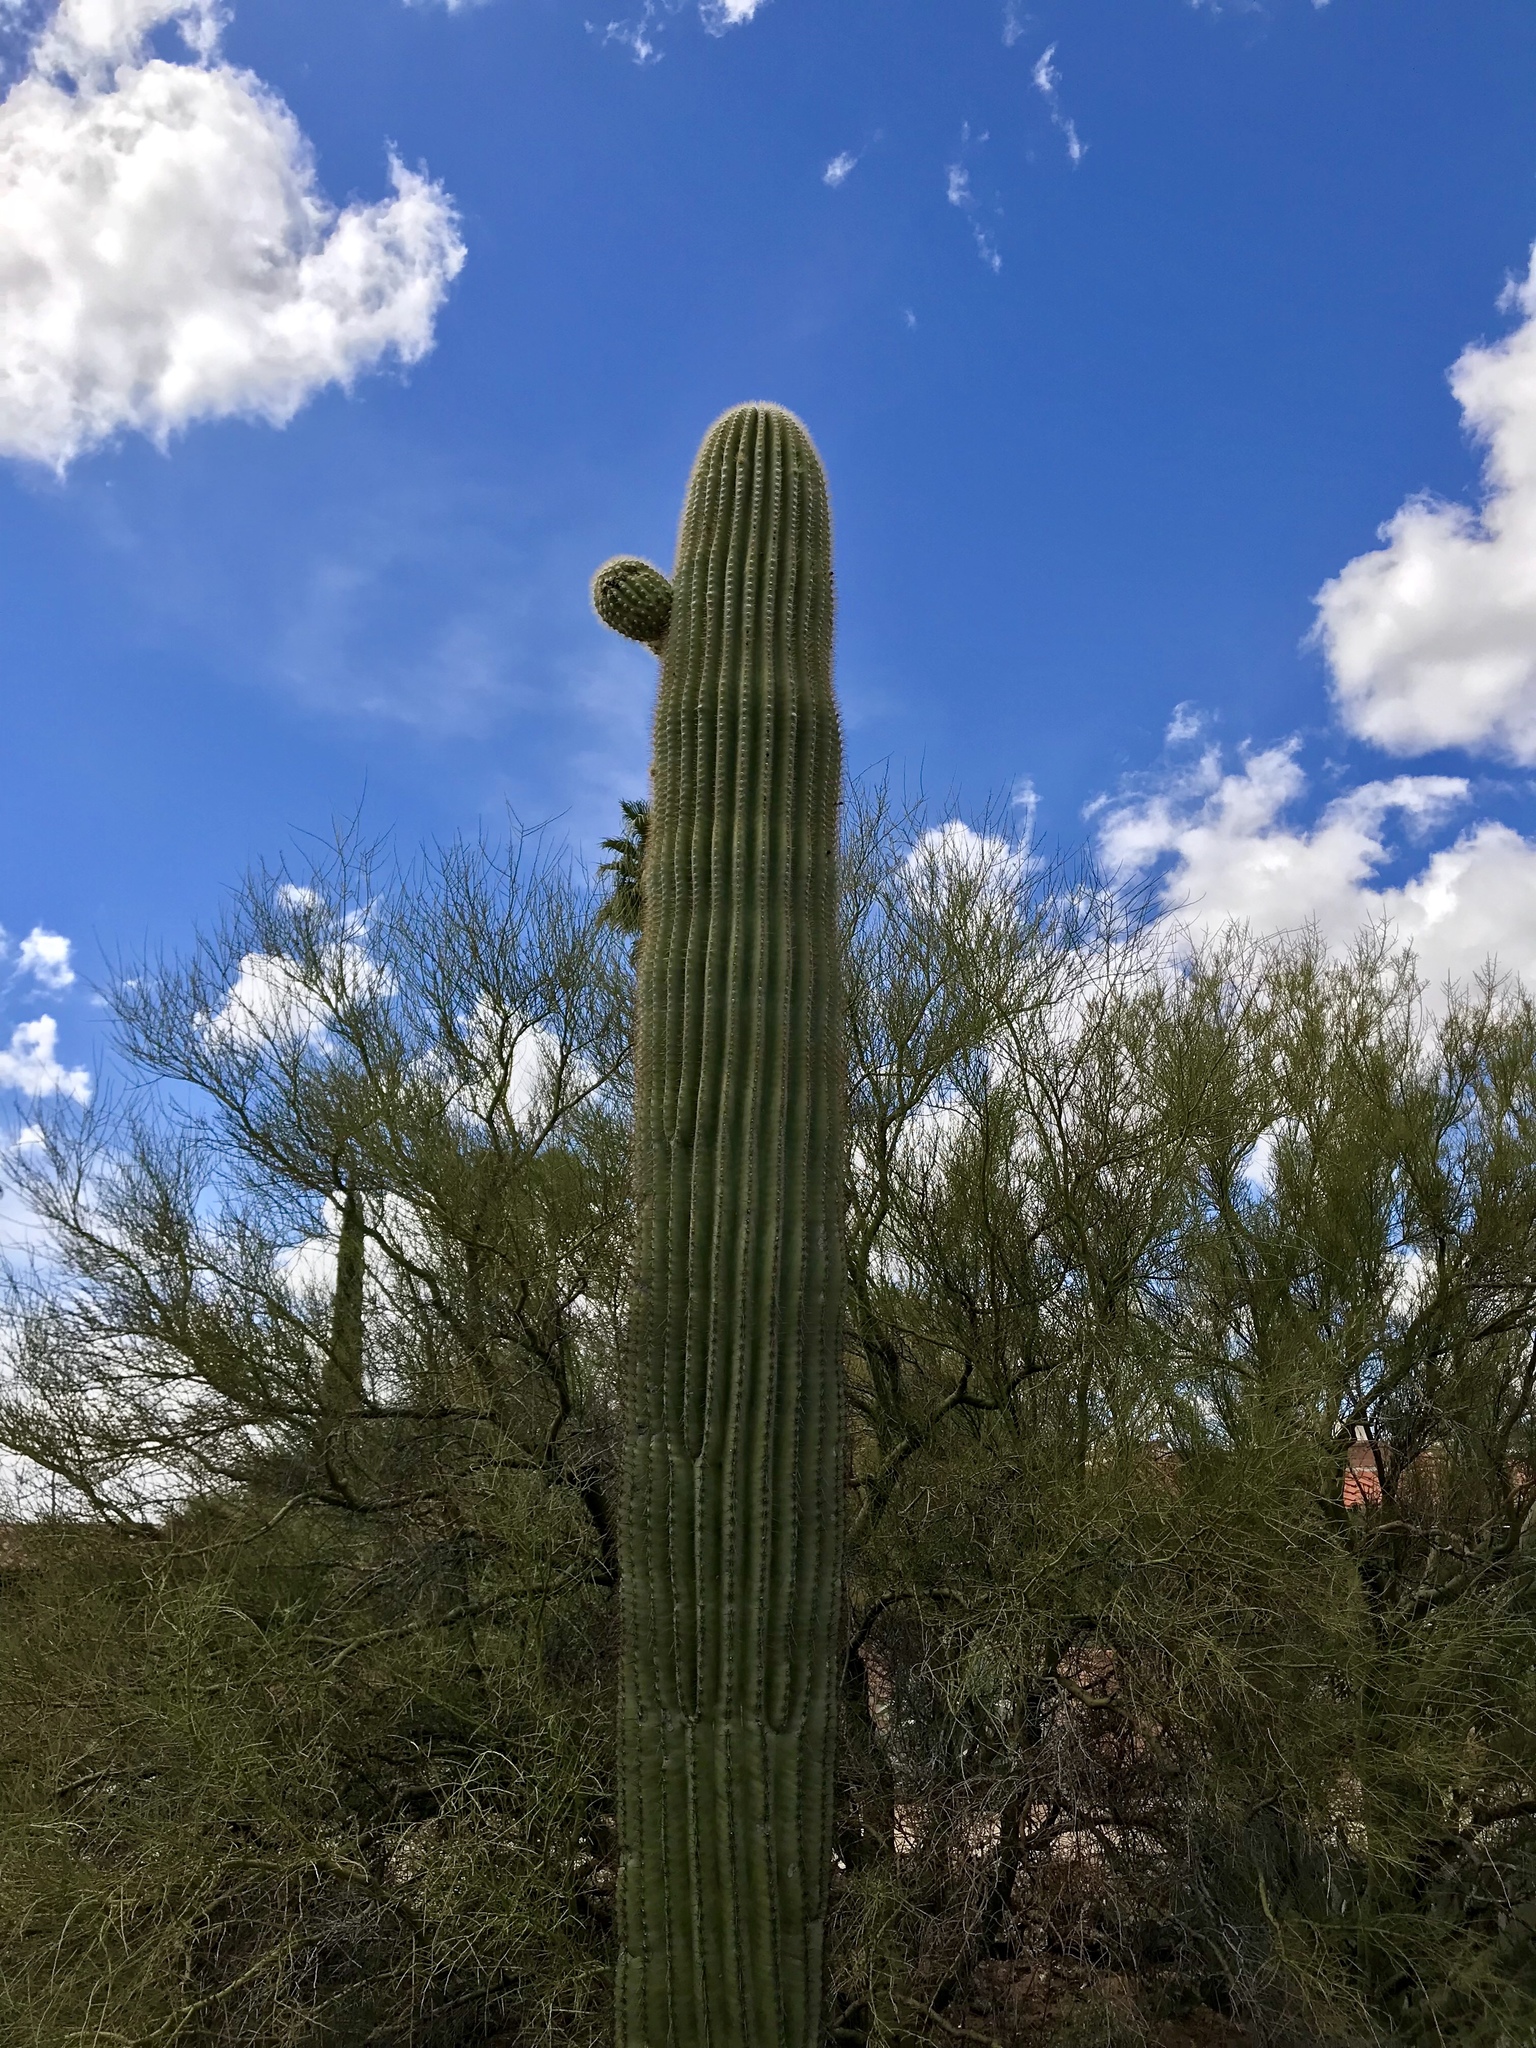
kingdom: Plantae
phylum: Tracheophyta
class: Magnoliopsida
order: Caryophyllales
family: Cactaceae
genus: Carnegiea
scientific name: Carnegiea gigantea
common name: Saguaro
